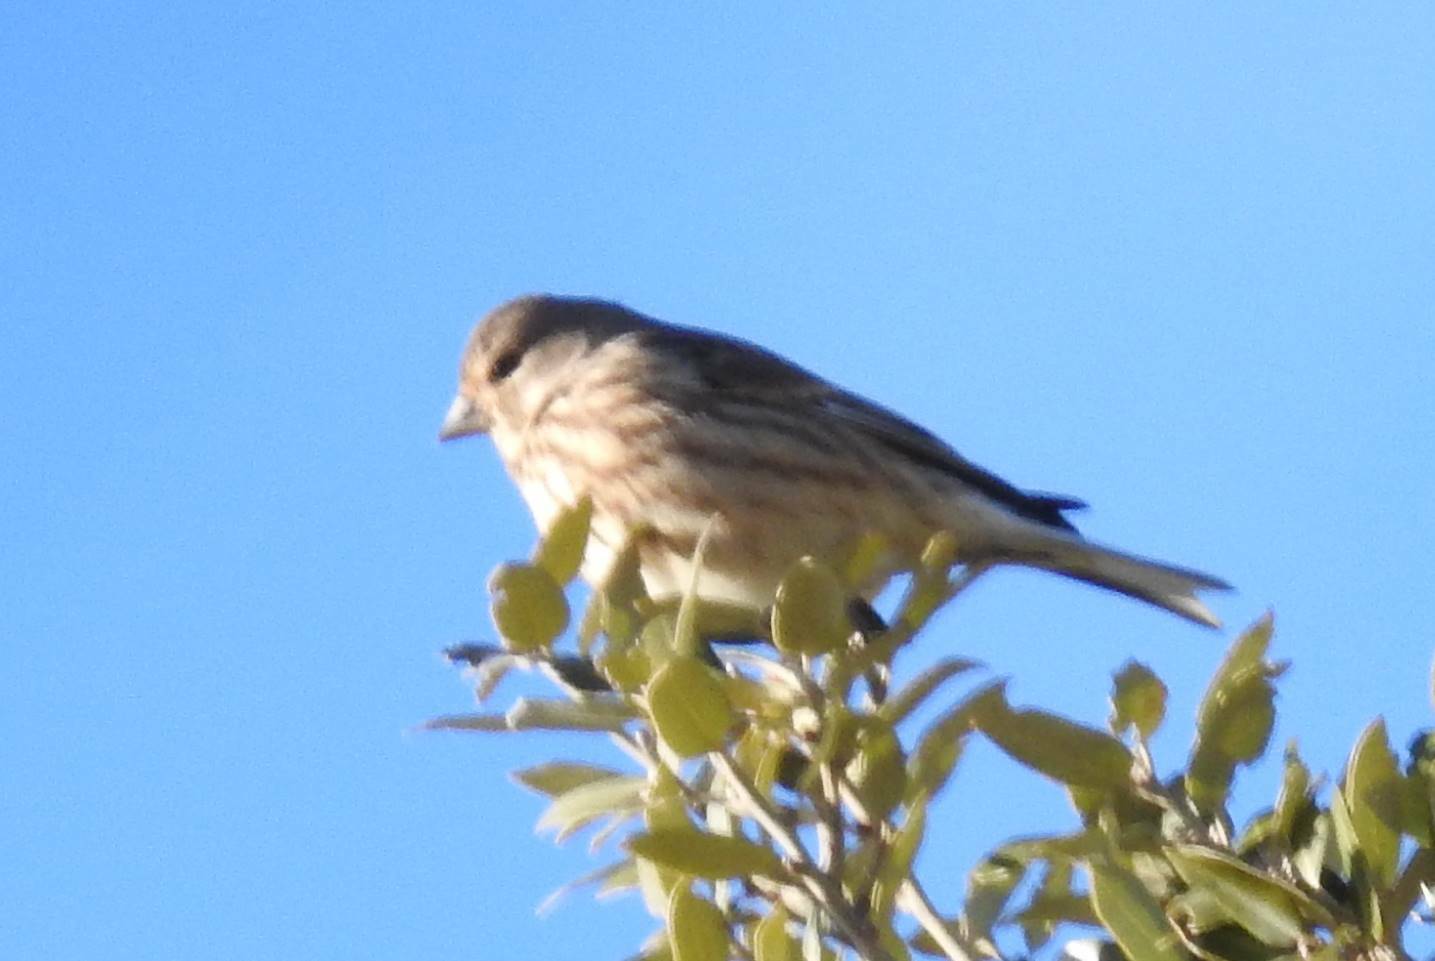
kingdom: Animalia
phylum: Chordata
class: Aves
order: Passeriformes
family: Fringillidae
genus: Linaria
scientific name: Linaria cannabina
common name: Common linnet
